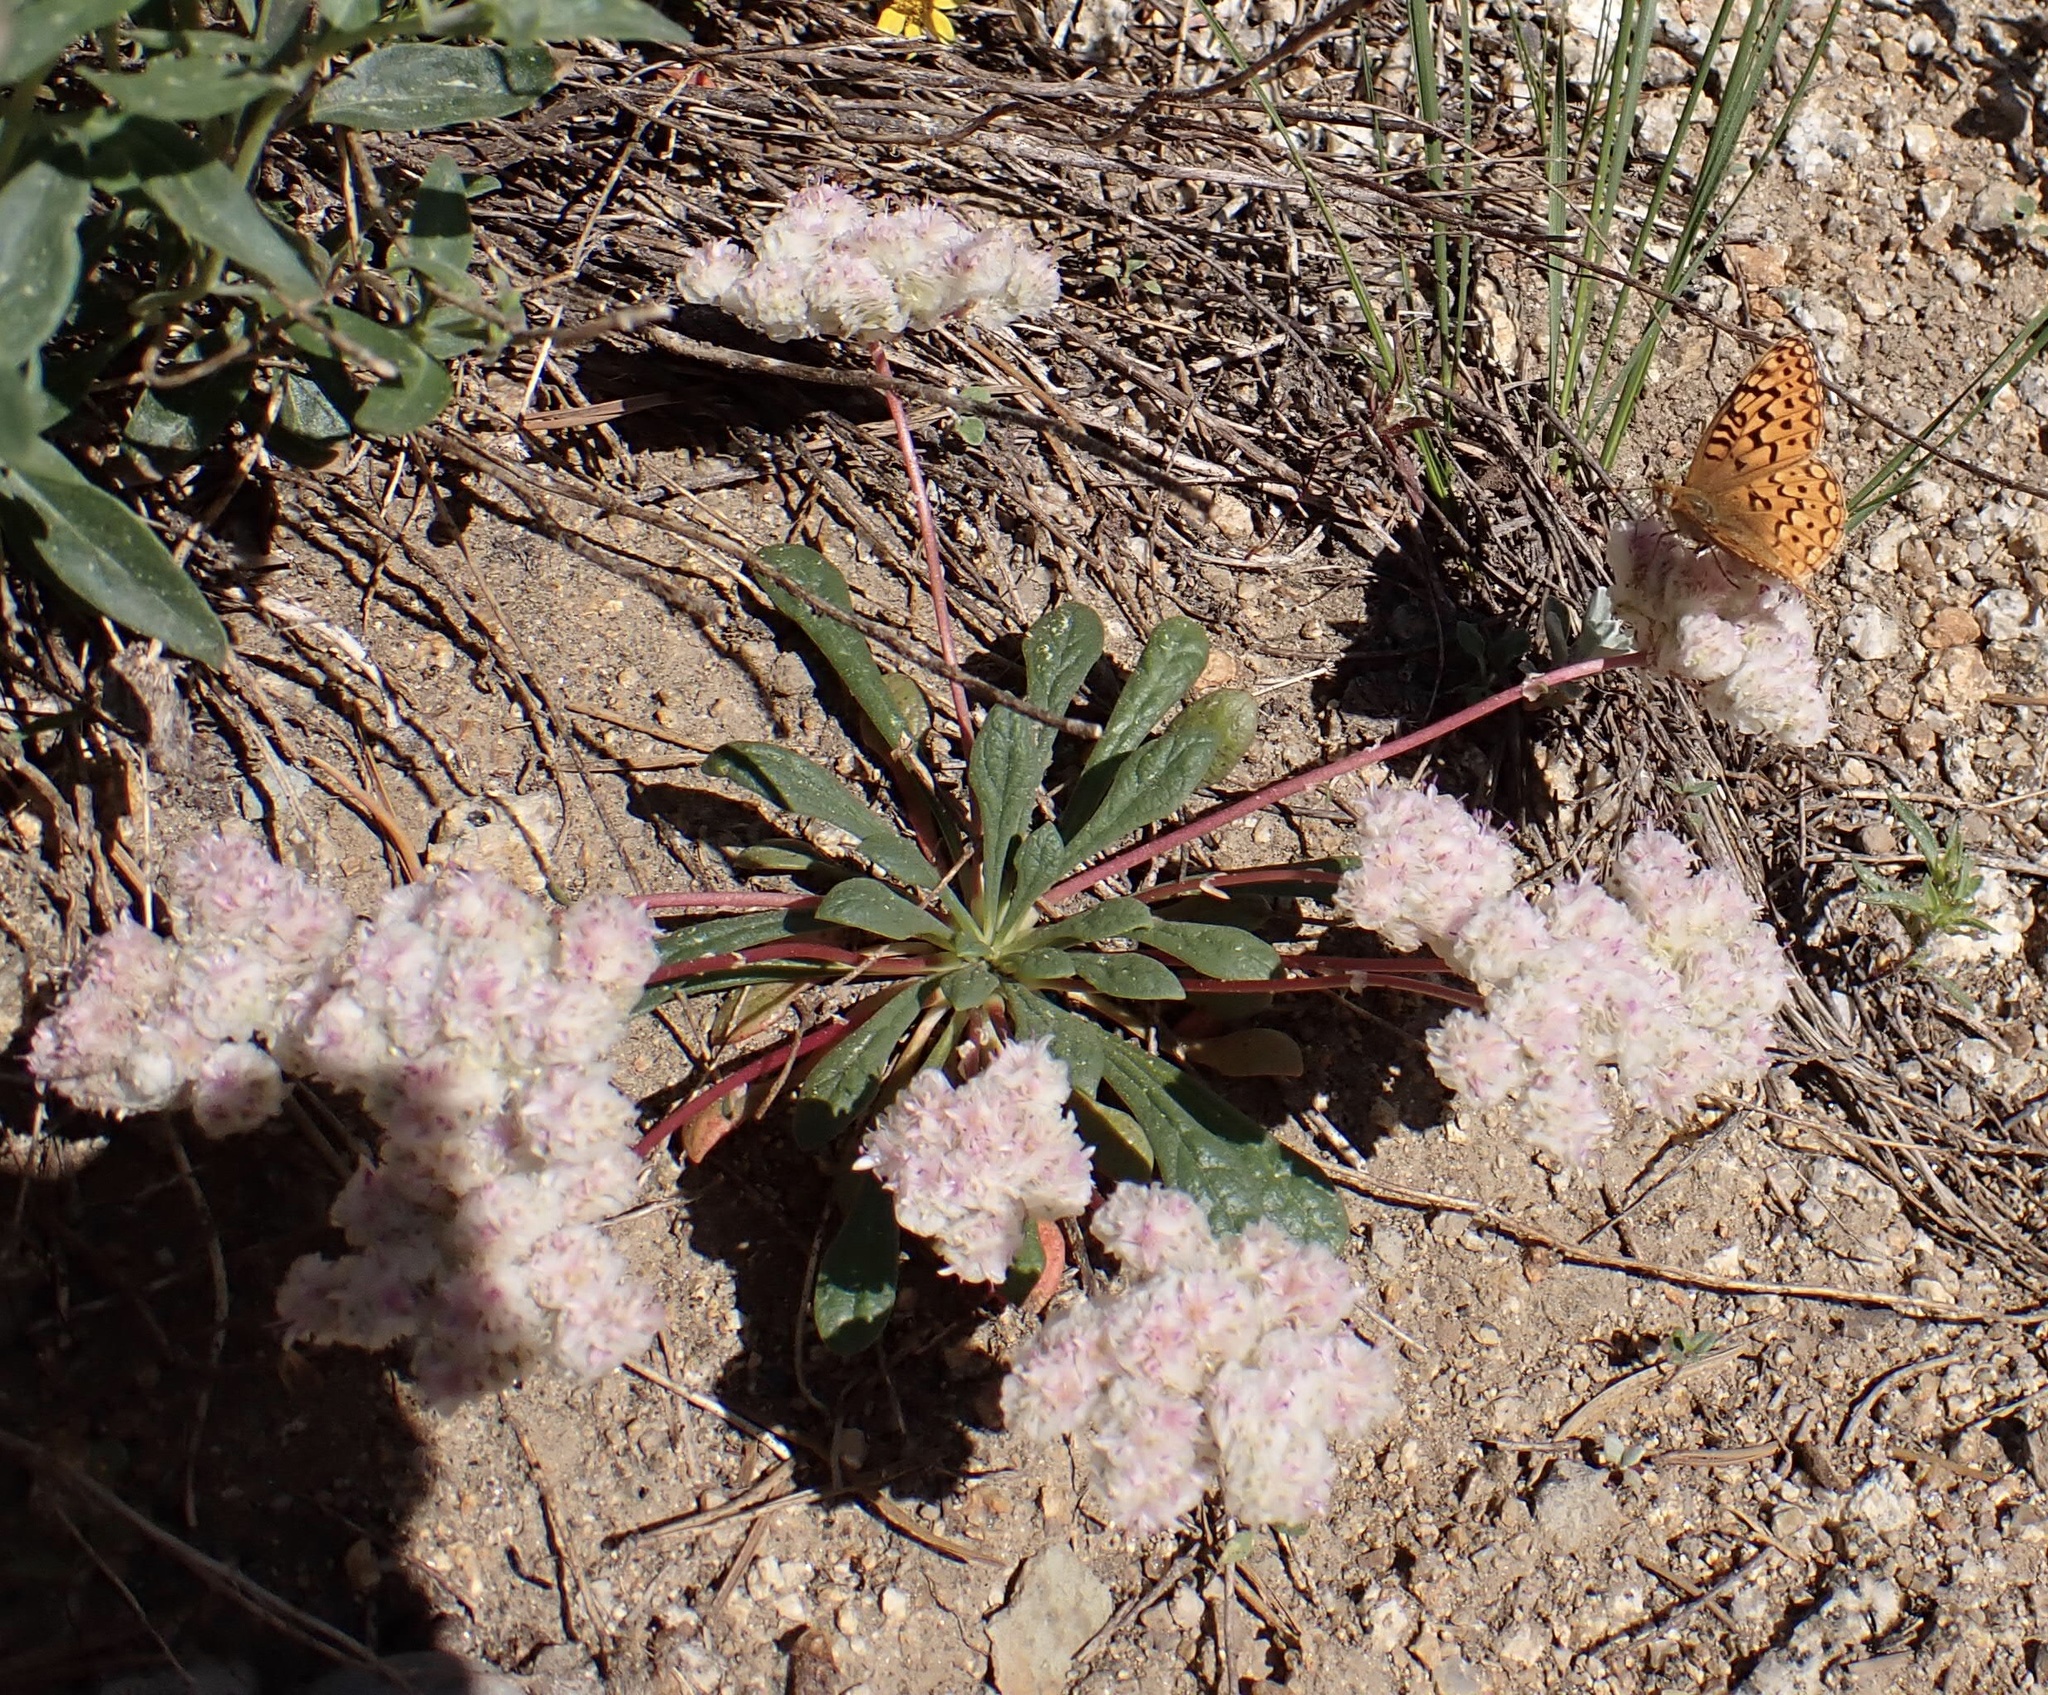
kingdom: Plantae
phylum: Tracheophyta
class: Magnoliopsida
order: Caryophyllales
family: Montiaceae
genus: Calyptridium
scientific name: Calyptridium monospermum
